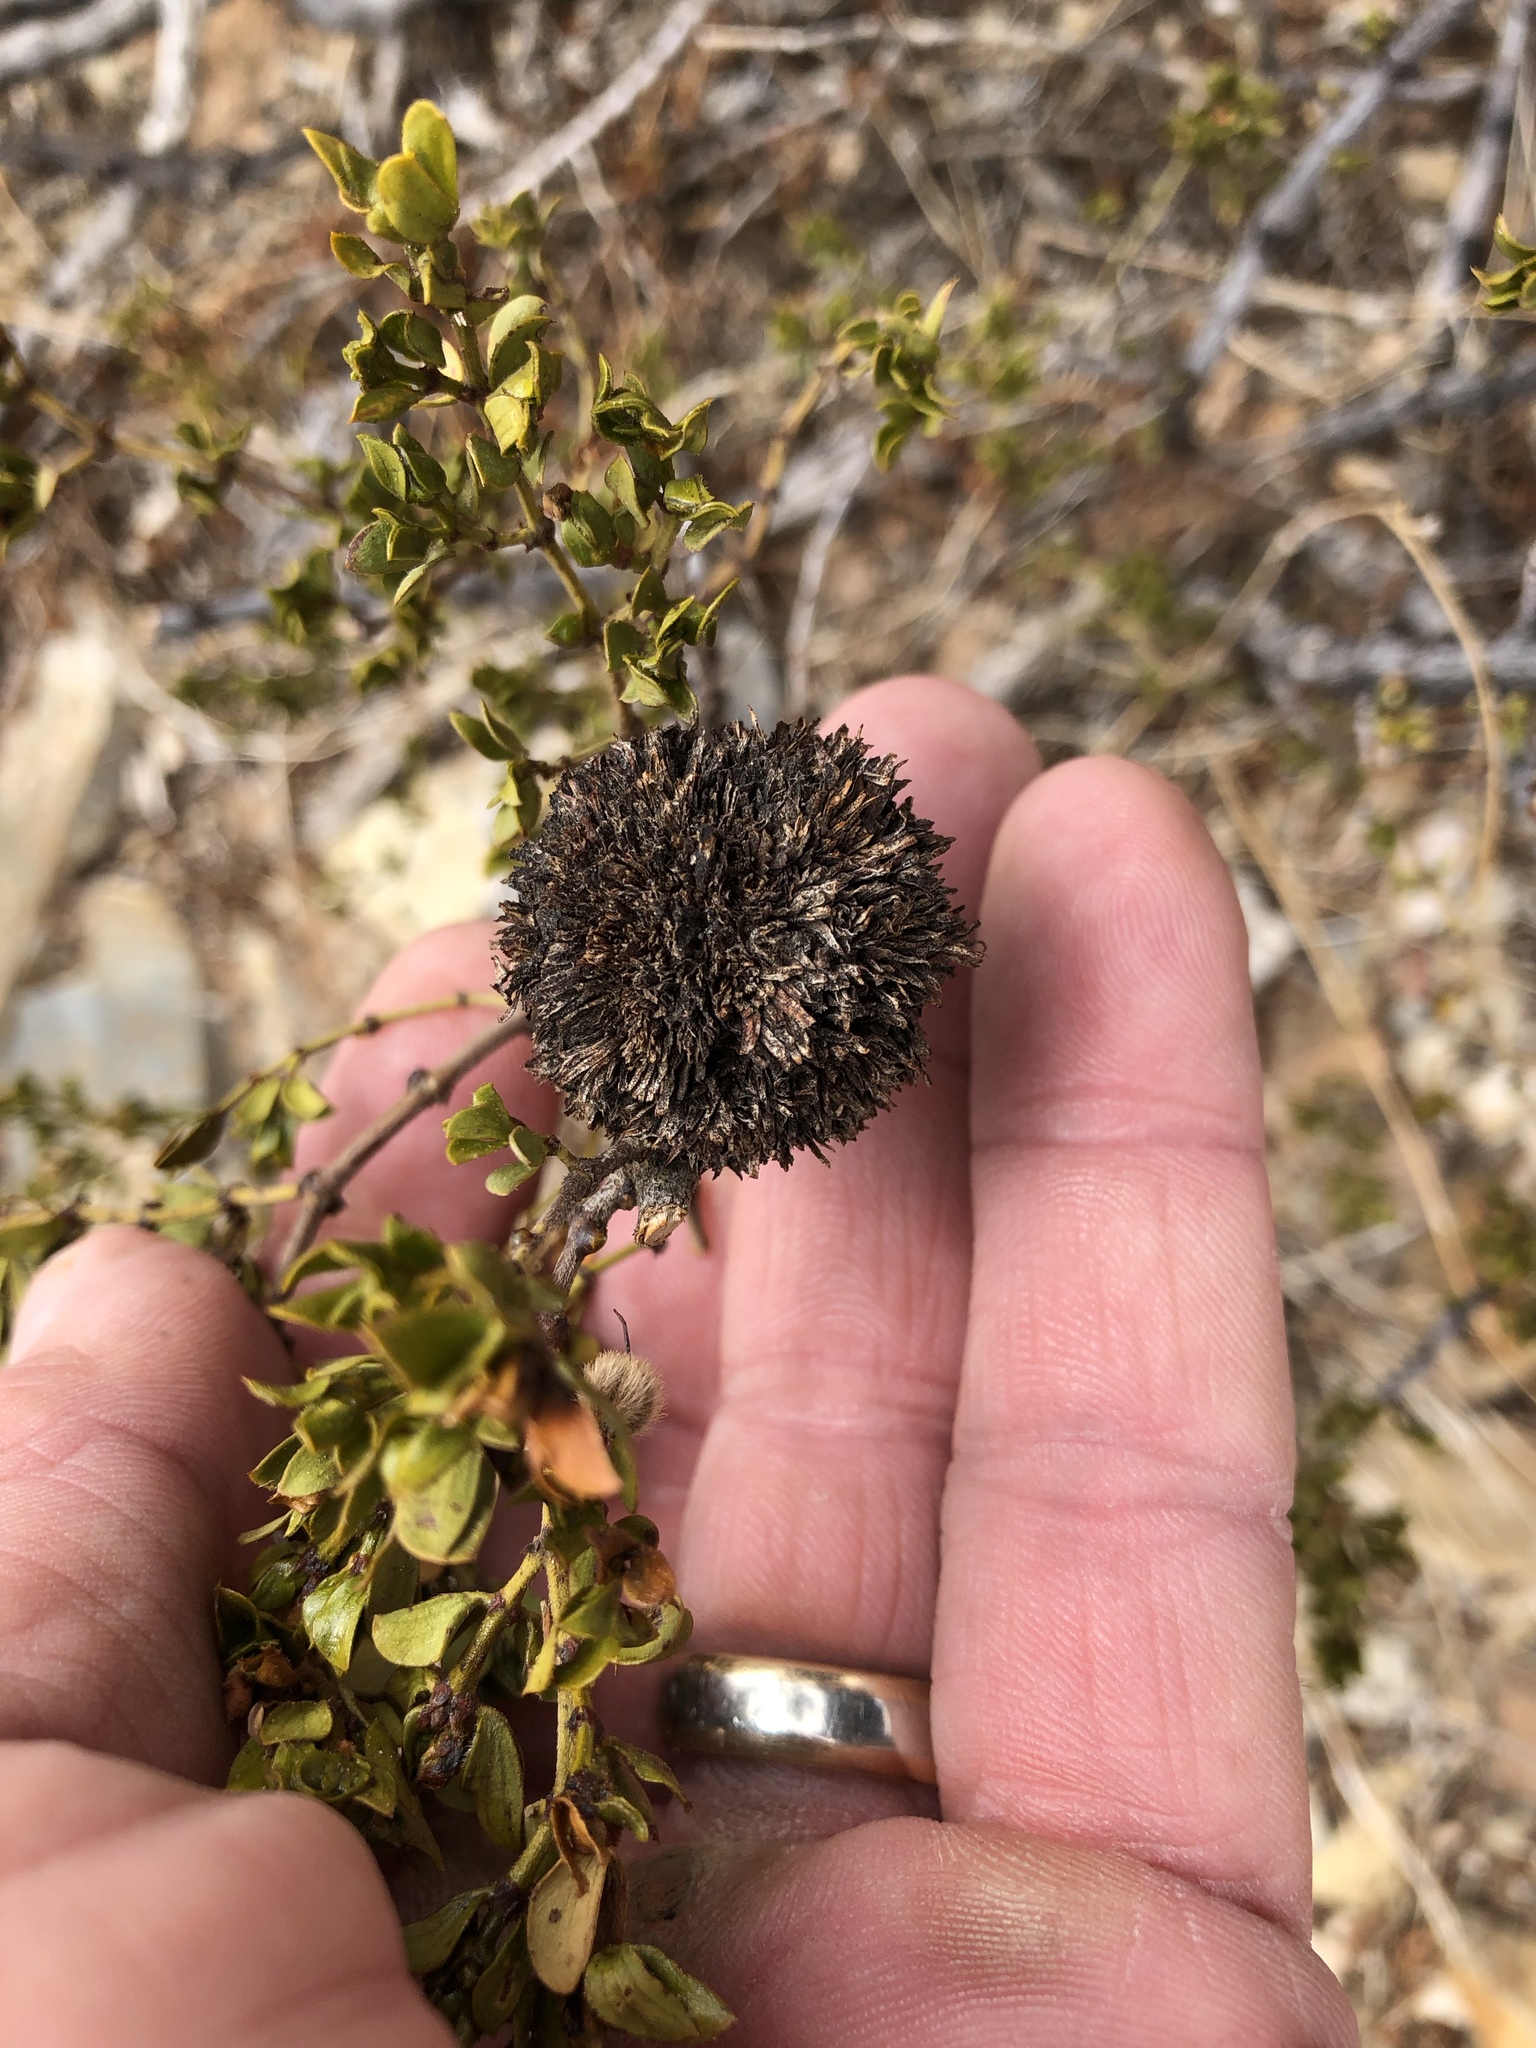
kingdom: Animalia
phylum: Arthropoda
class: Insecta
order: Diptera
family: Cecidomyiidae
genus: Asphondylia
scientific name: Asphondylia auripila
